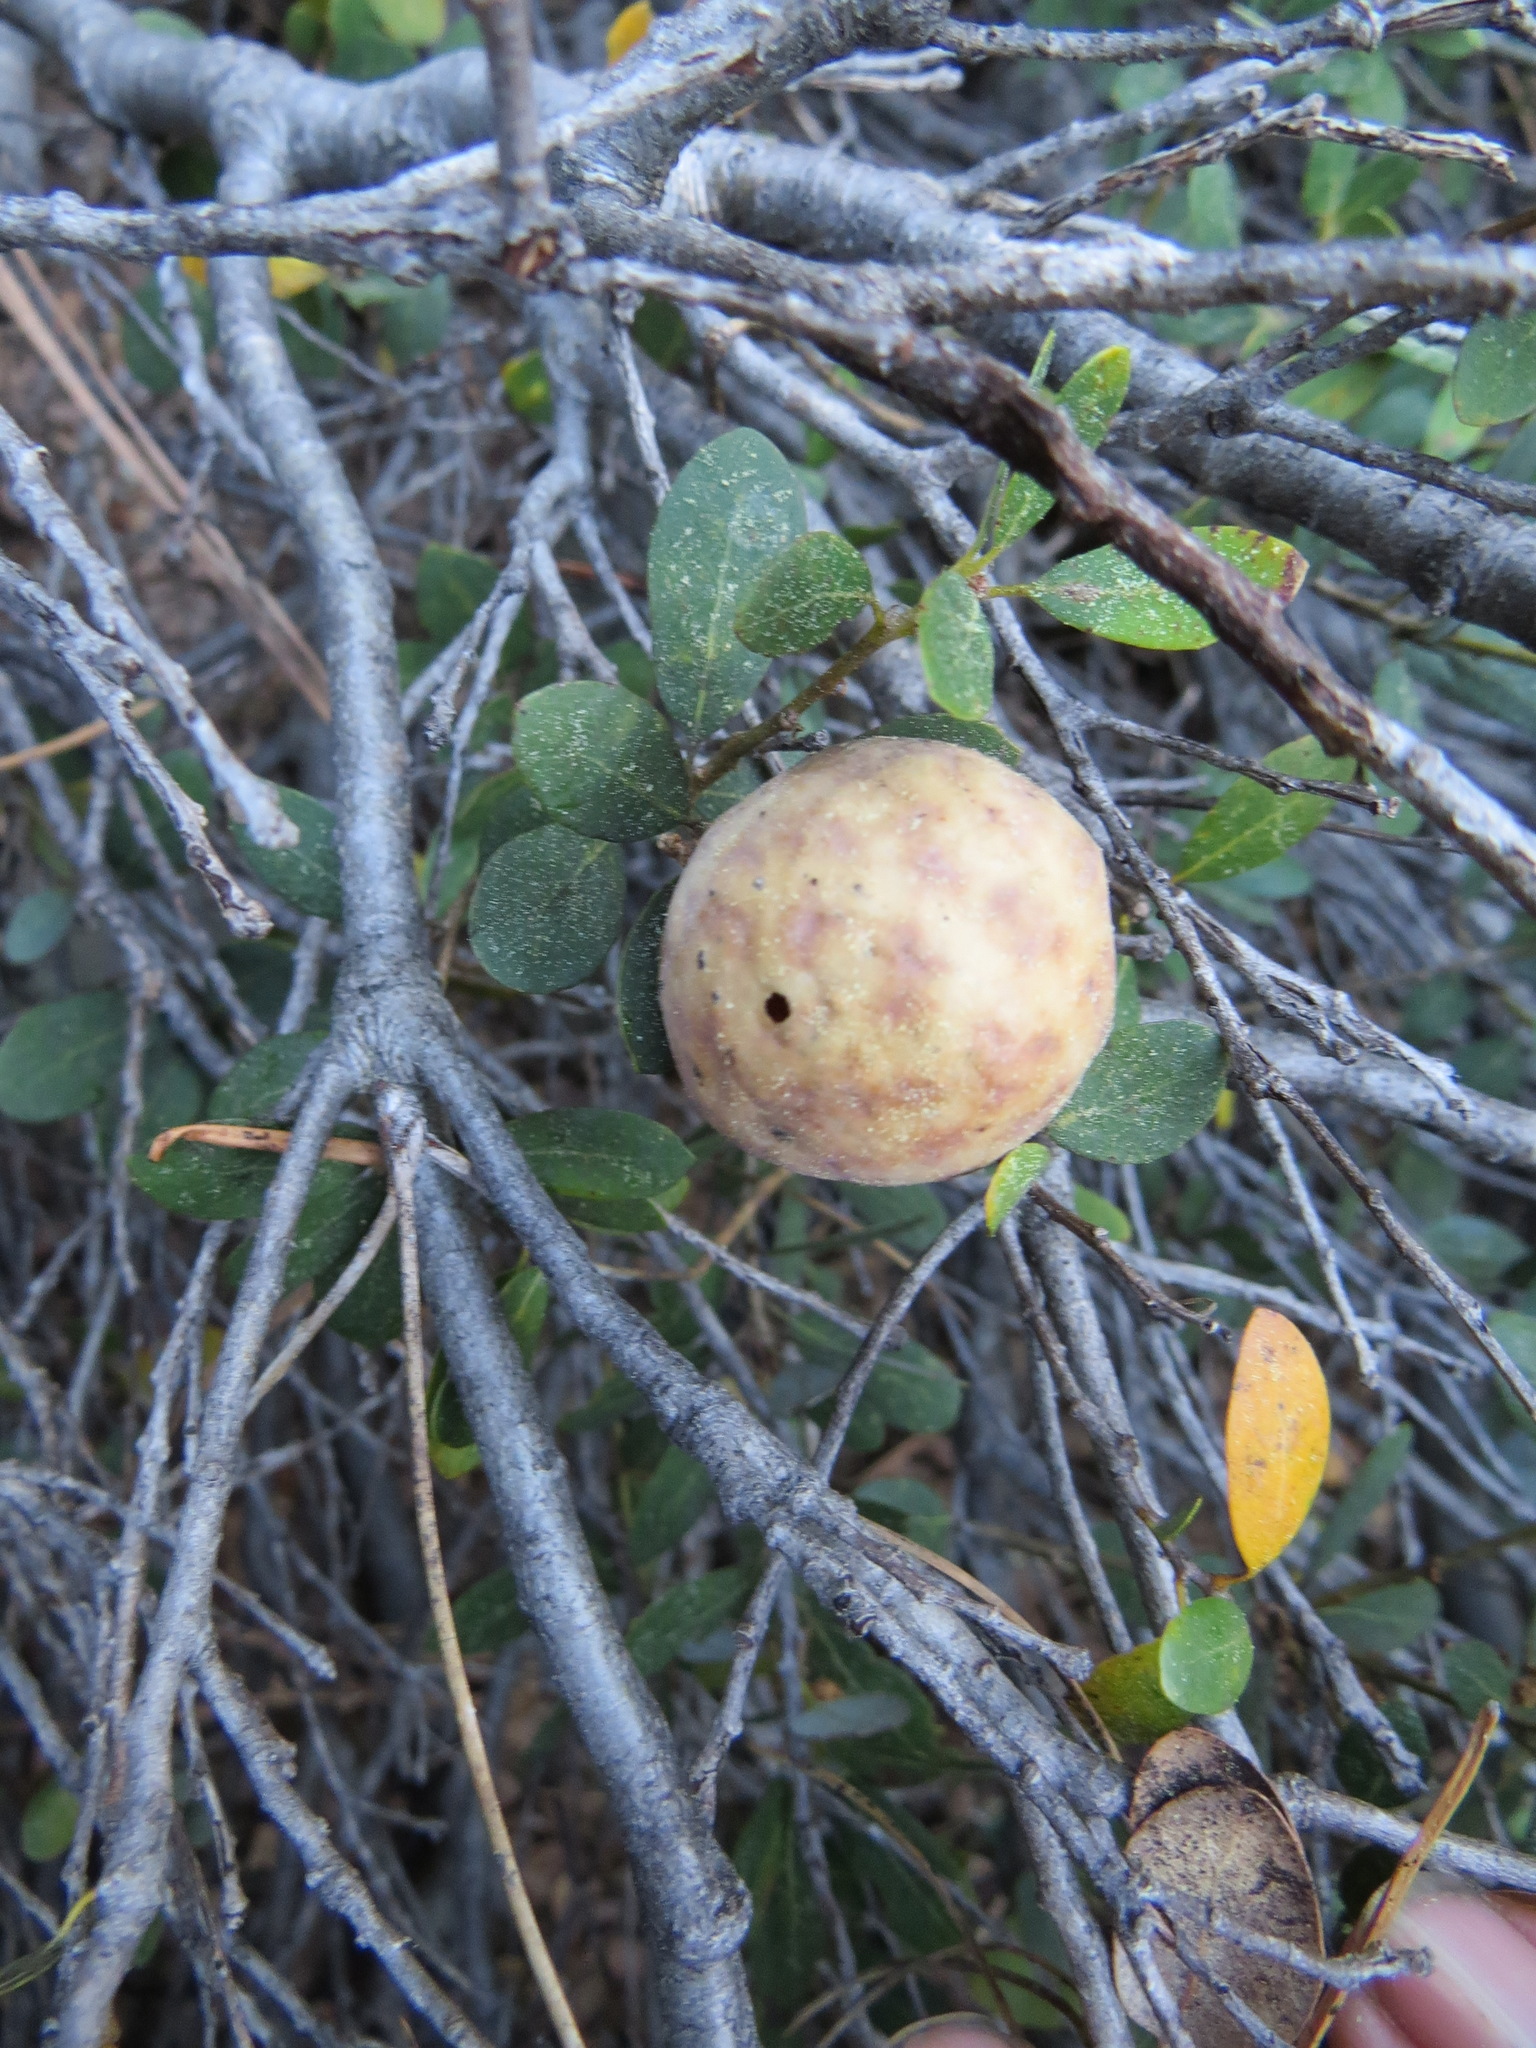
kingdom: Animalia
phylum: Arthropoda
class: Insecta
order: Hymenoptera
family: Cynipidae
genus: Andricus
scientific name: Andricus
